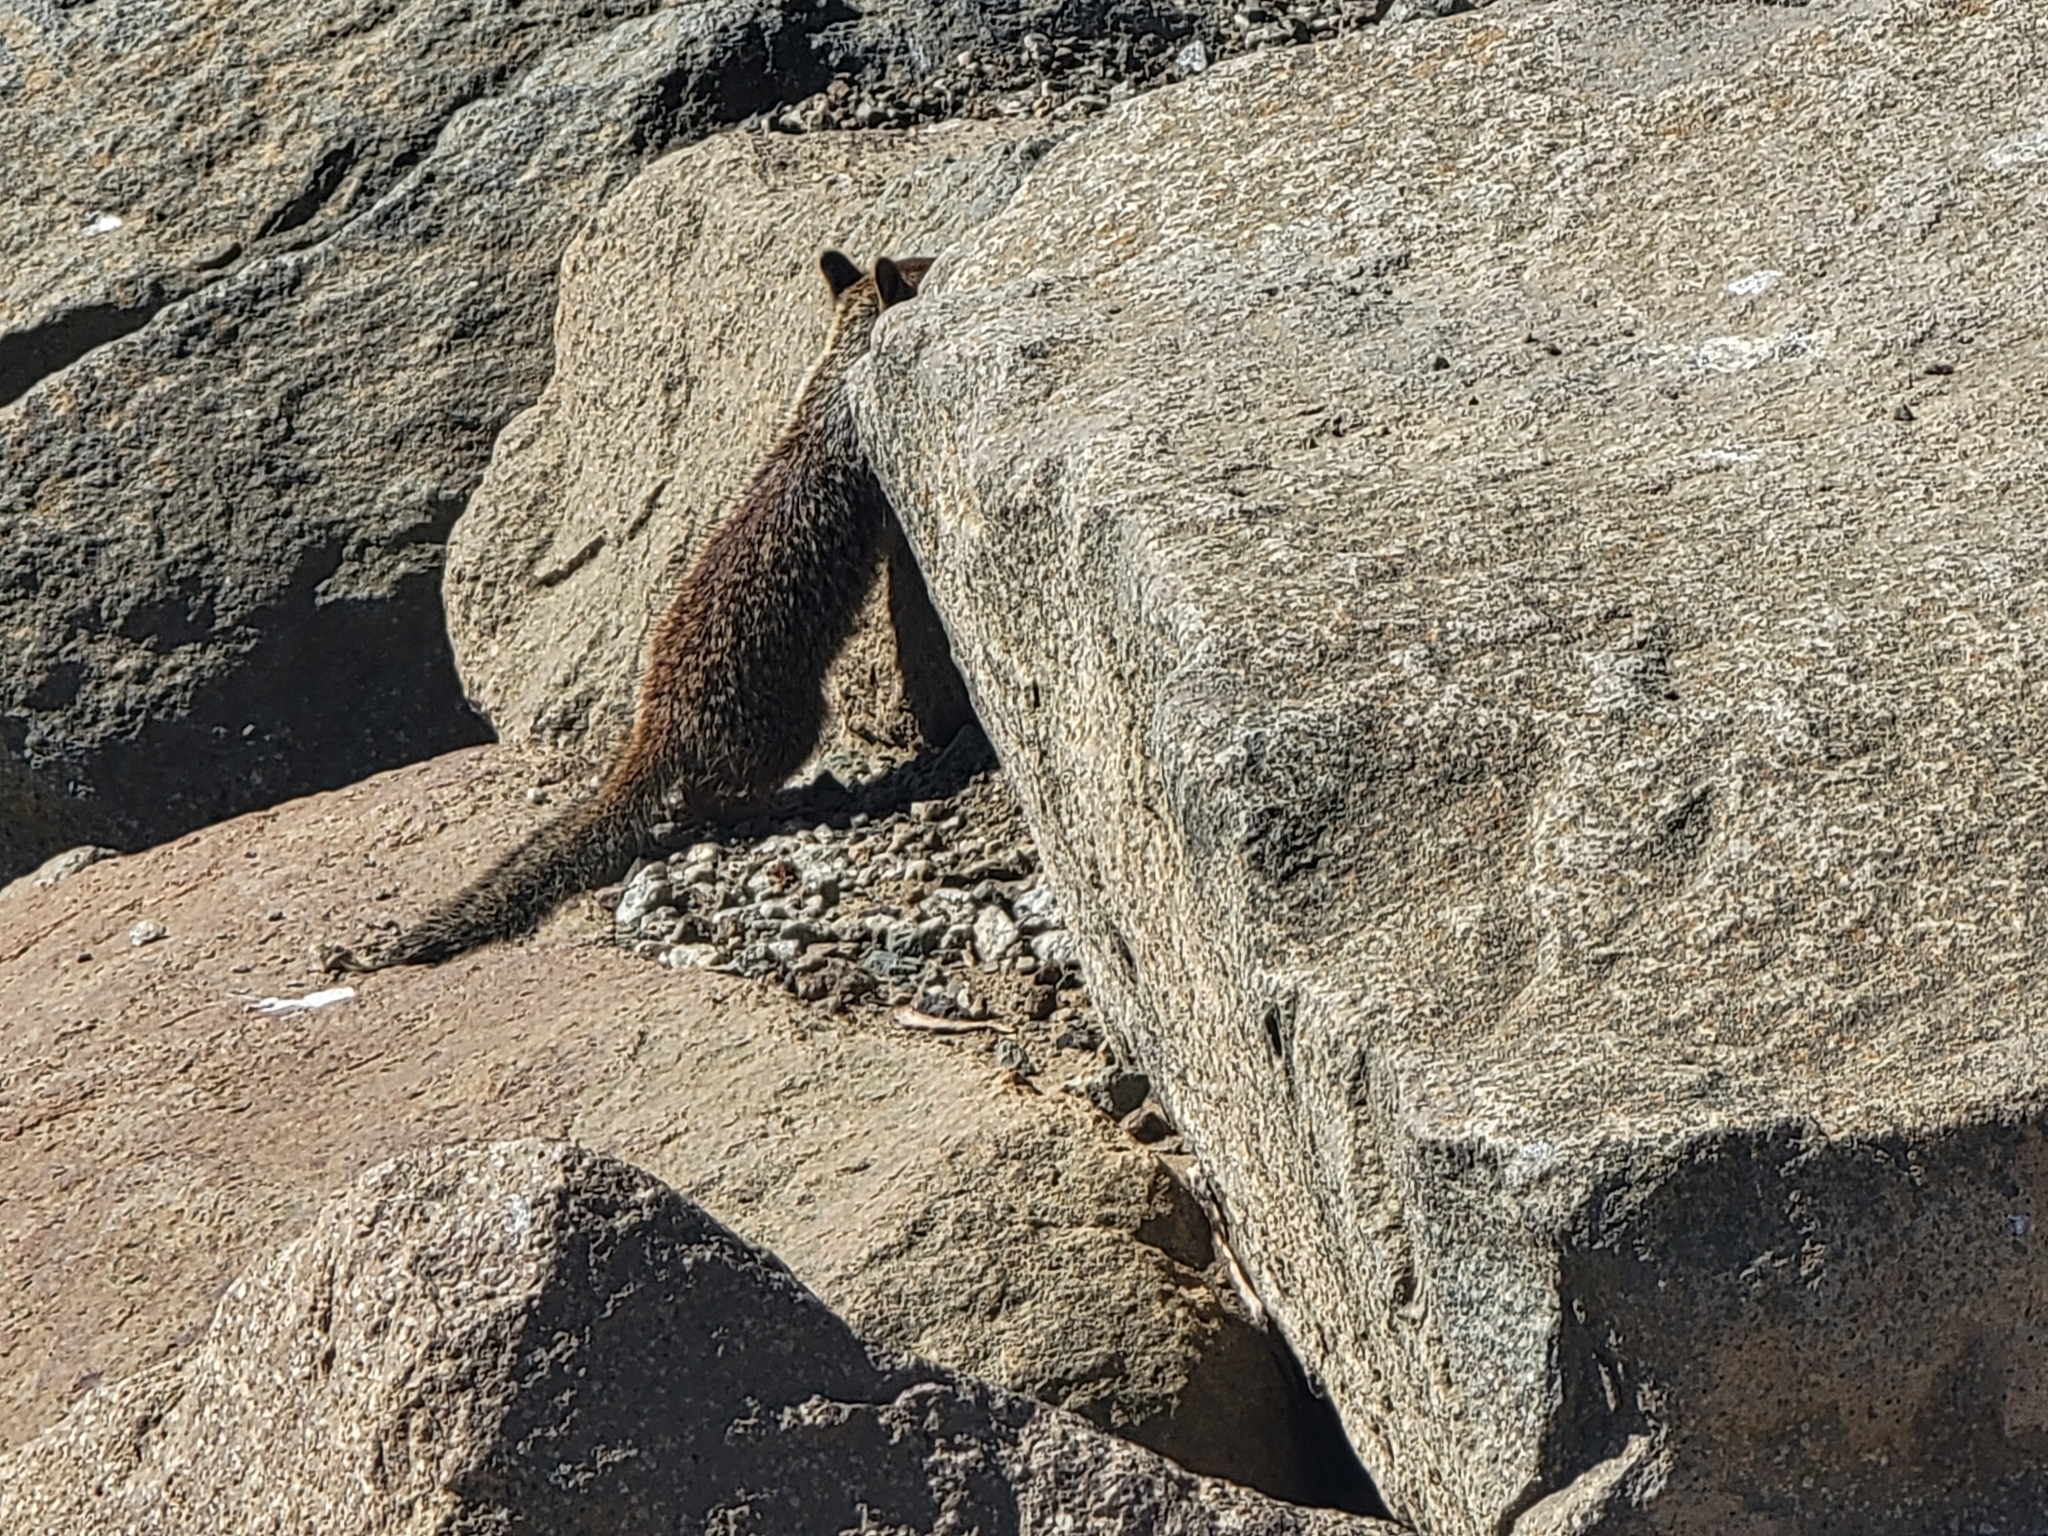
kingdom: Animalia
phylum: Chordata
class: Mammalia
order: Rodentia
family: Sciuridae
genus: Otospermophilus
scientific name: Otospermophilus beecheyi
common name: California ground squirrel
